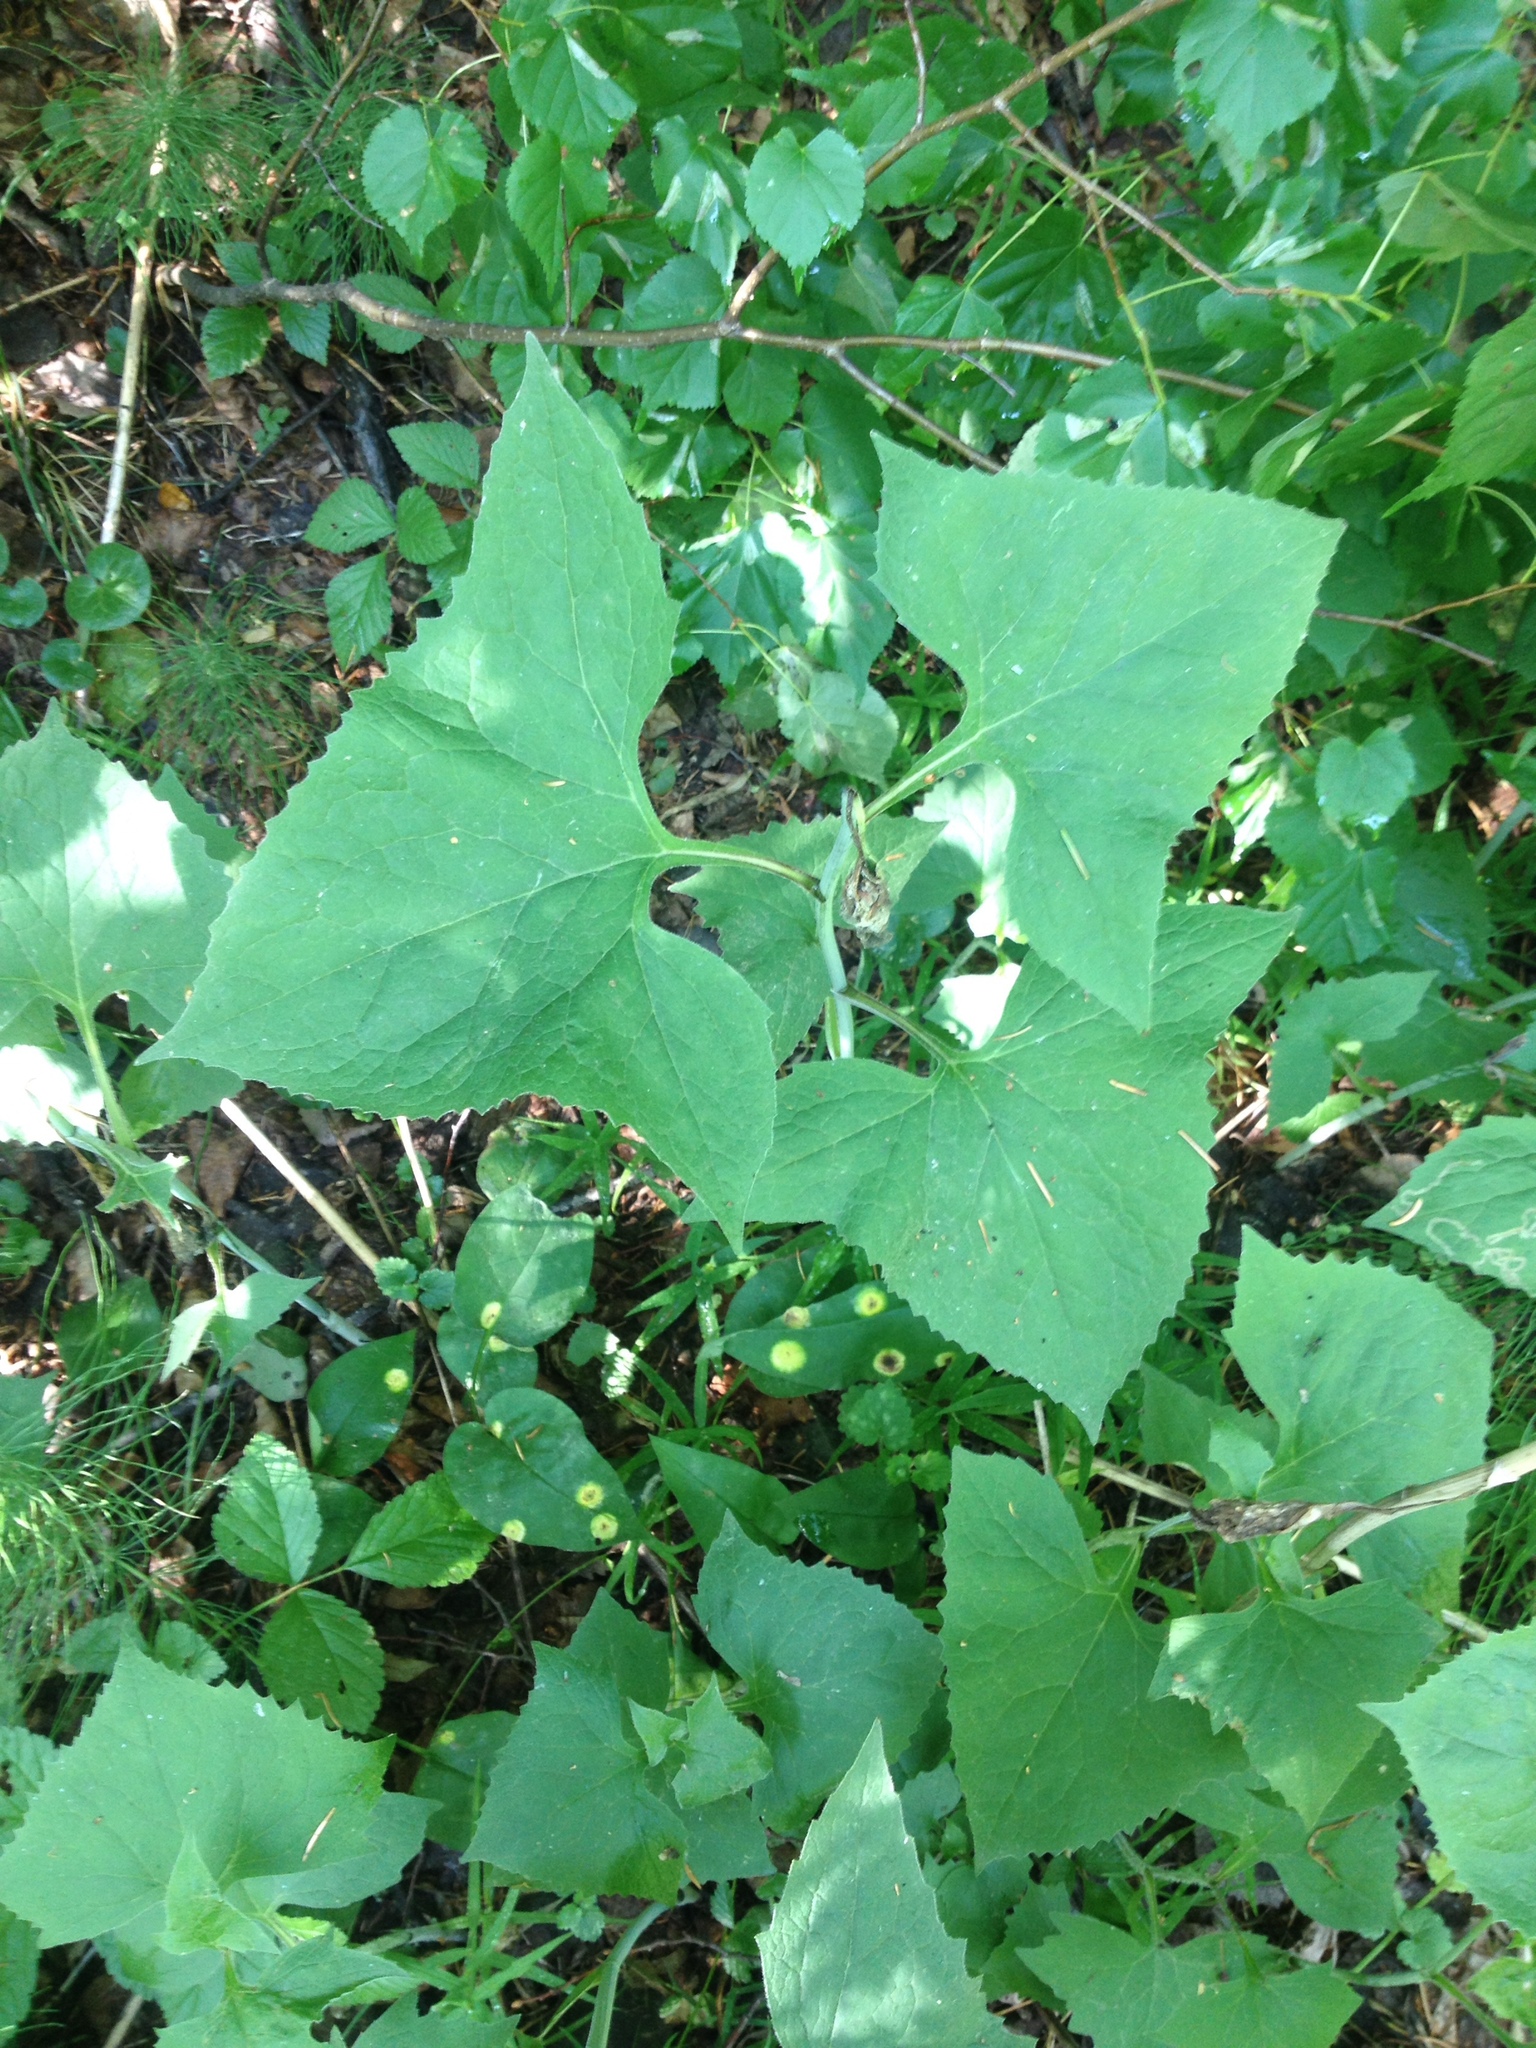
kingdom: Plantae
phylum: Tracheophyta
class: Magnoliopsida
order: Asterales
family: Asteraceae
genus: Parasenecio
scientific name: Parasenecio hastatus
